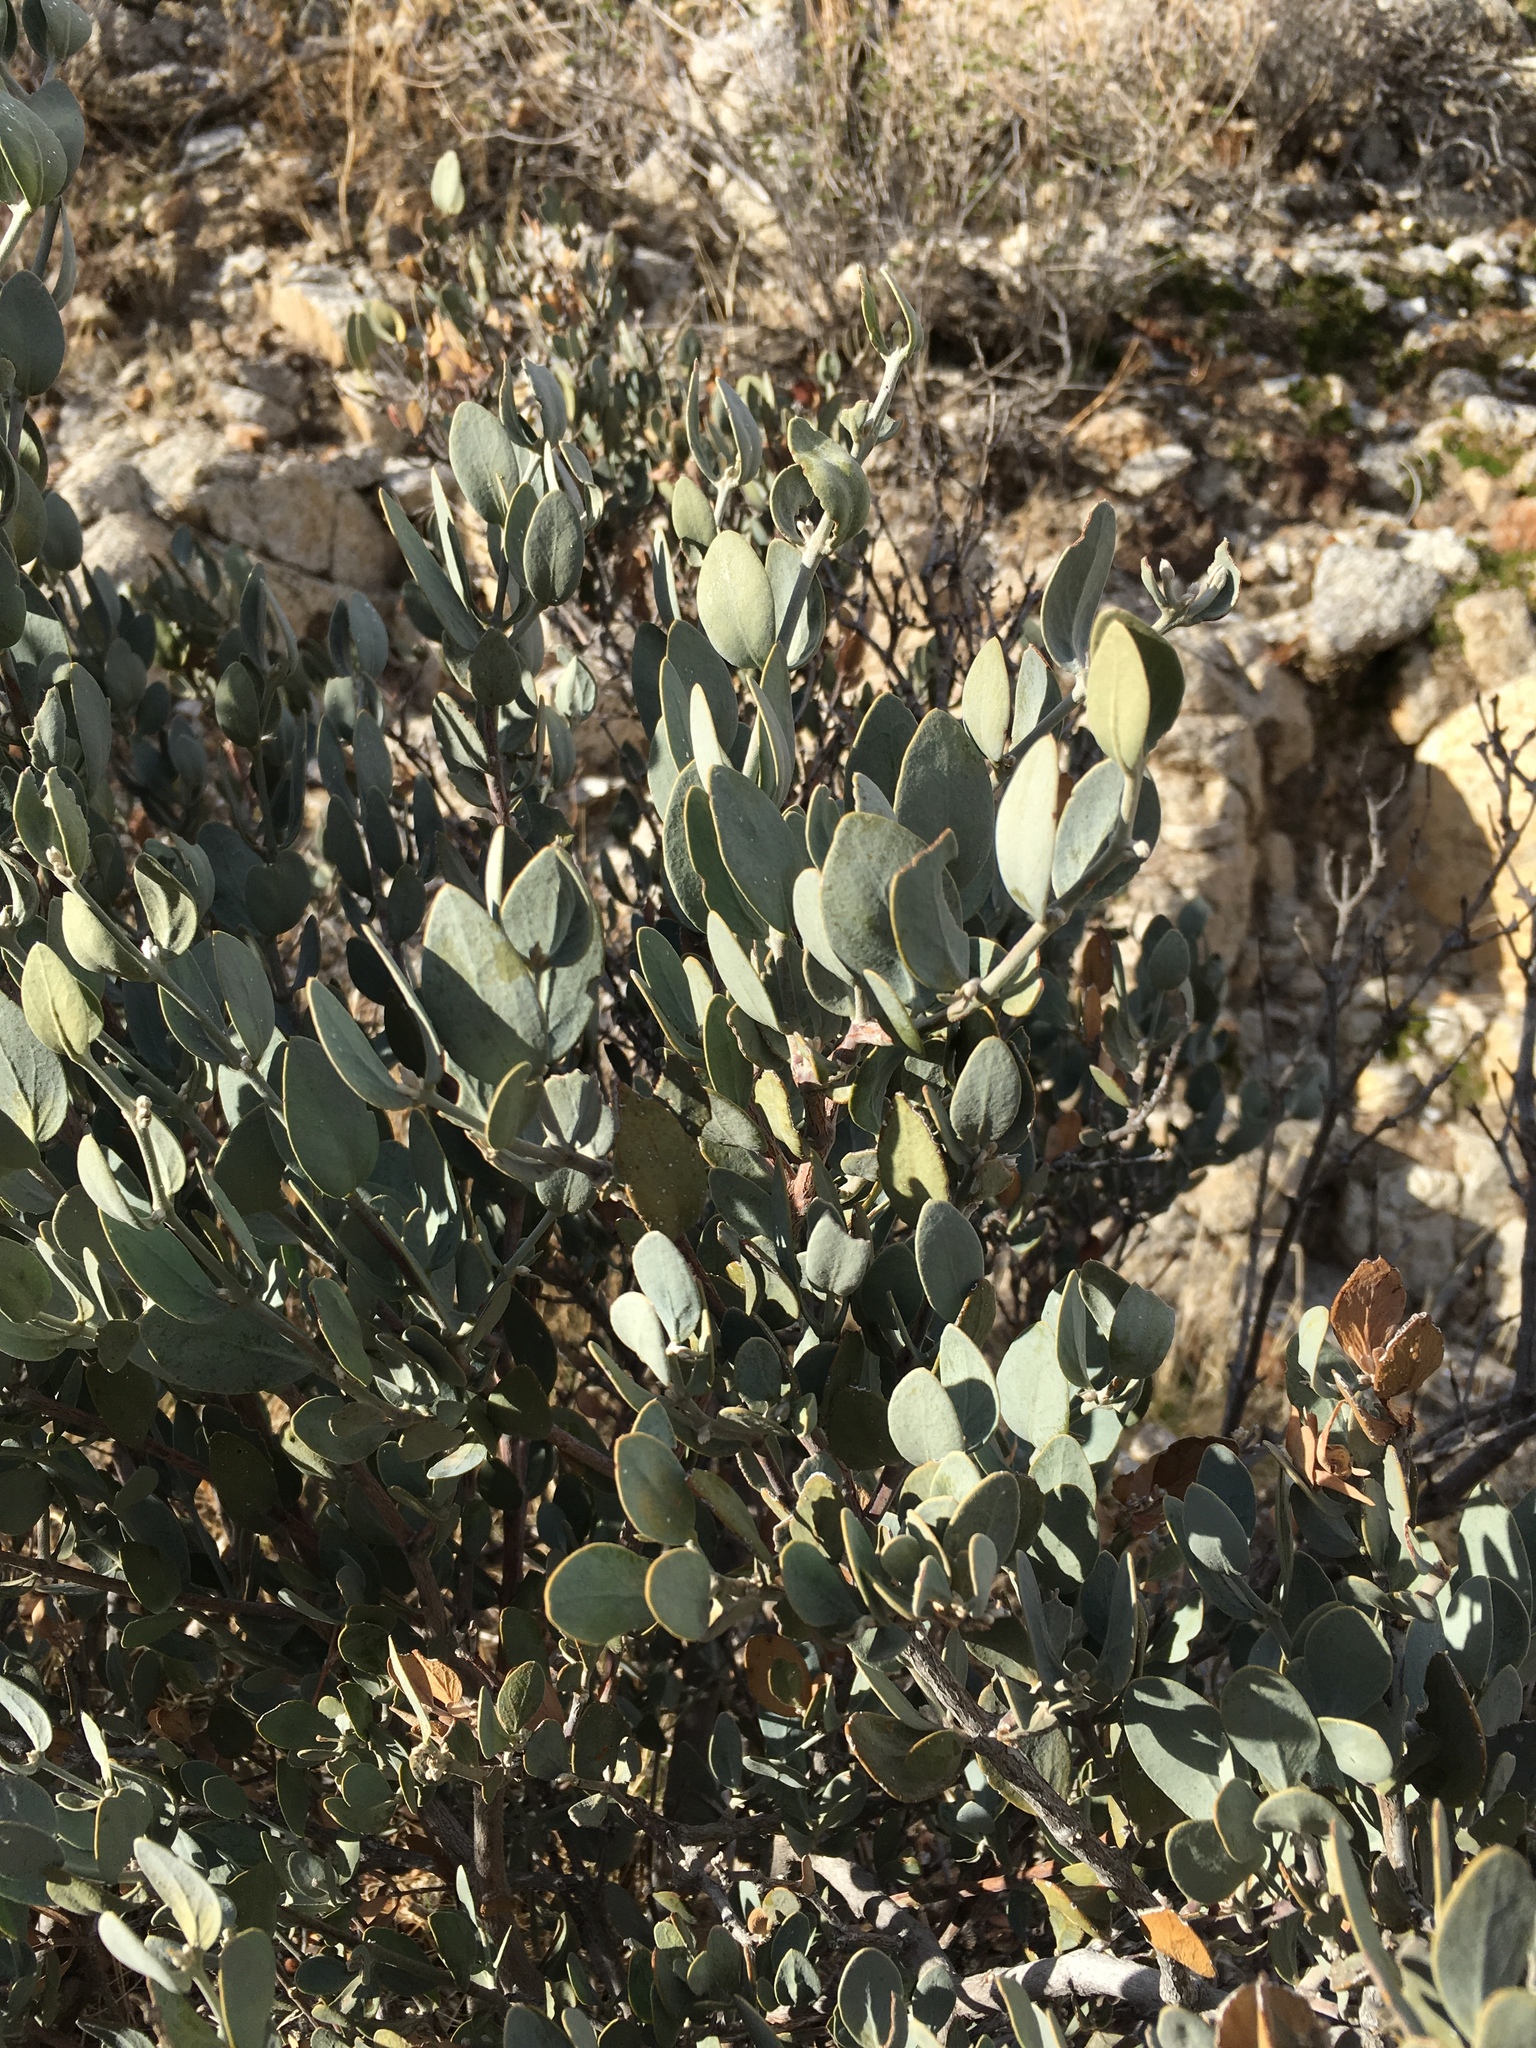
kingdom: Plantae
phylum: Tracheophyta
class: Magnoliopsida
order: Caryophyllales
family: Simmondsiaceae
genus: Simmondsia
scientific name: Simmondsia chinensis
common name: Jojoba
